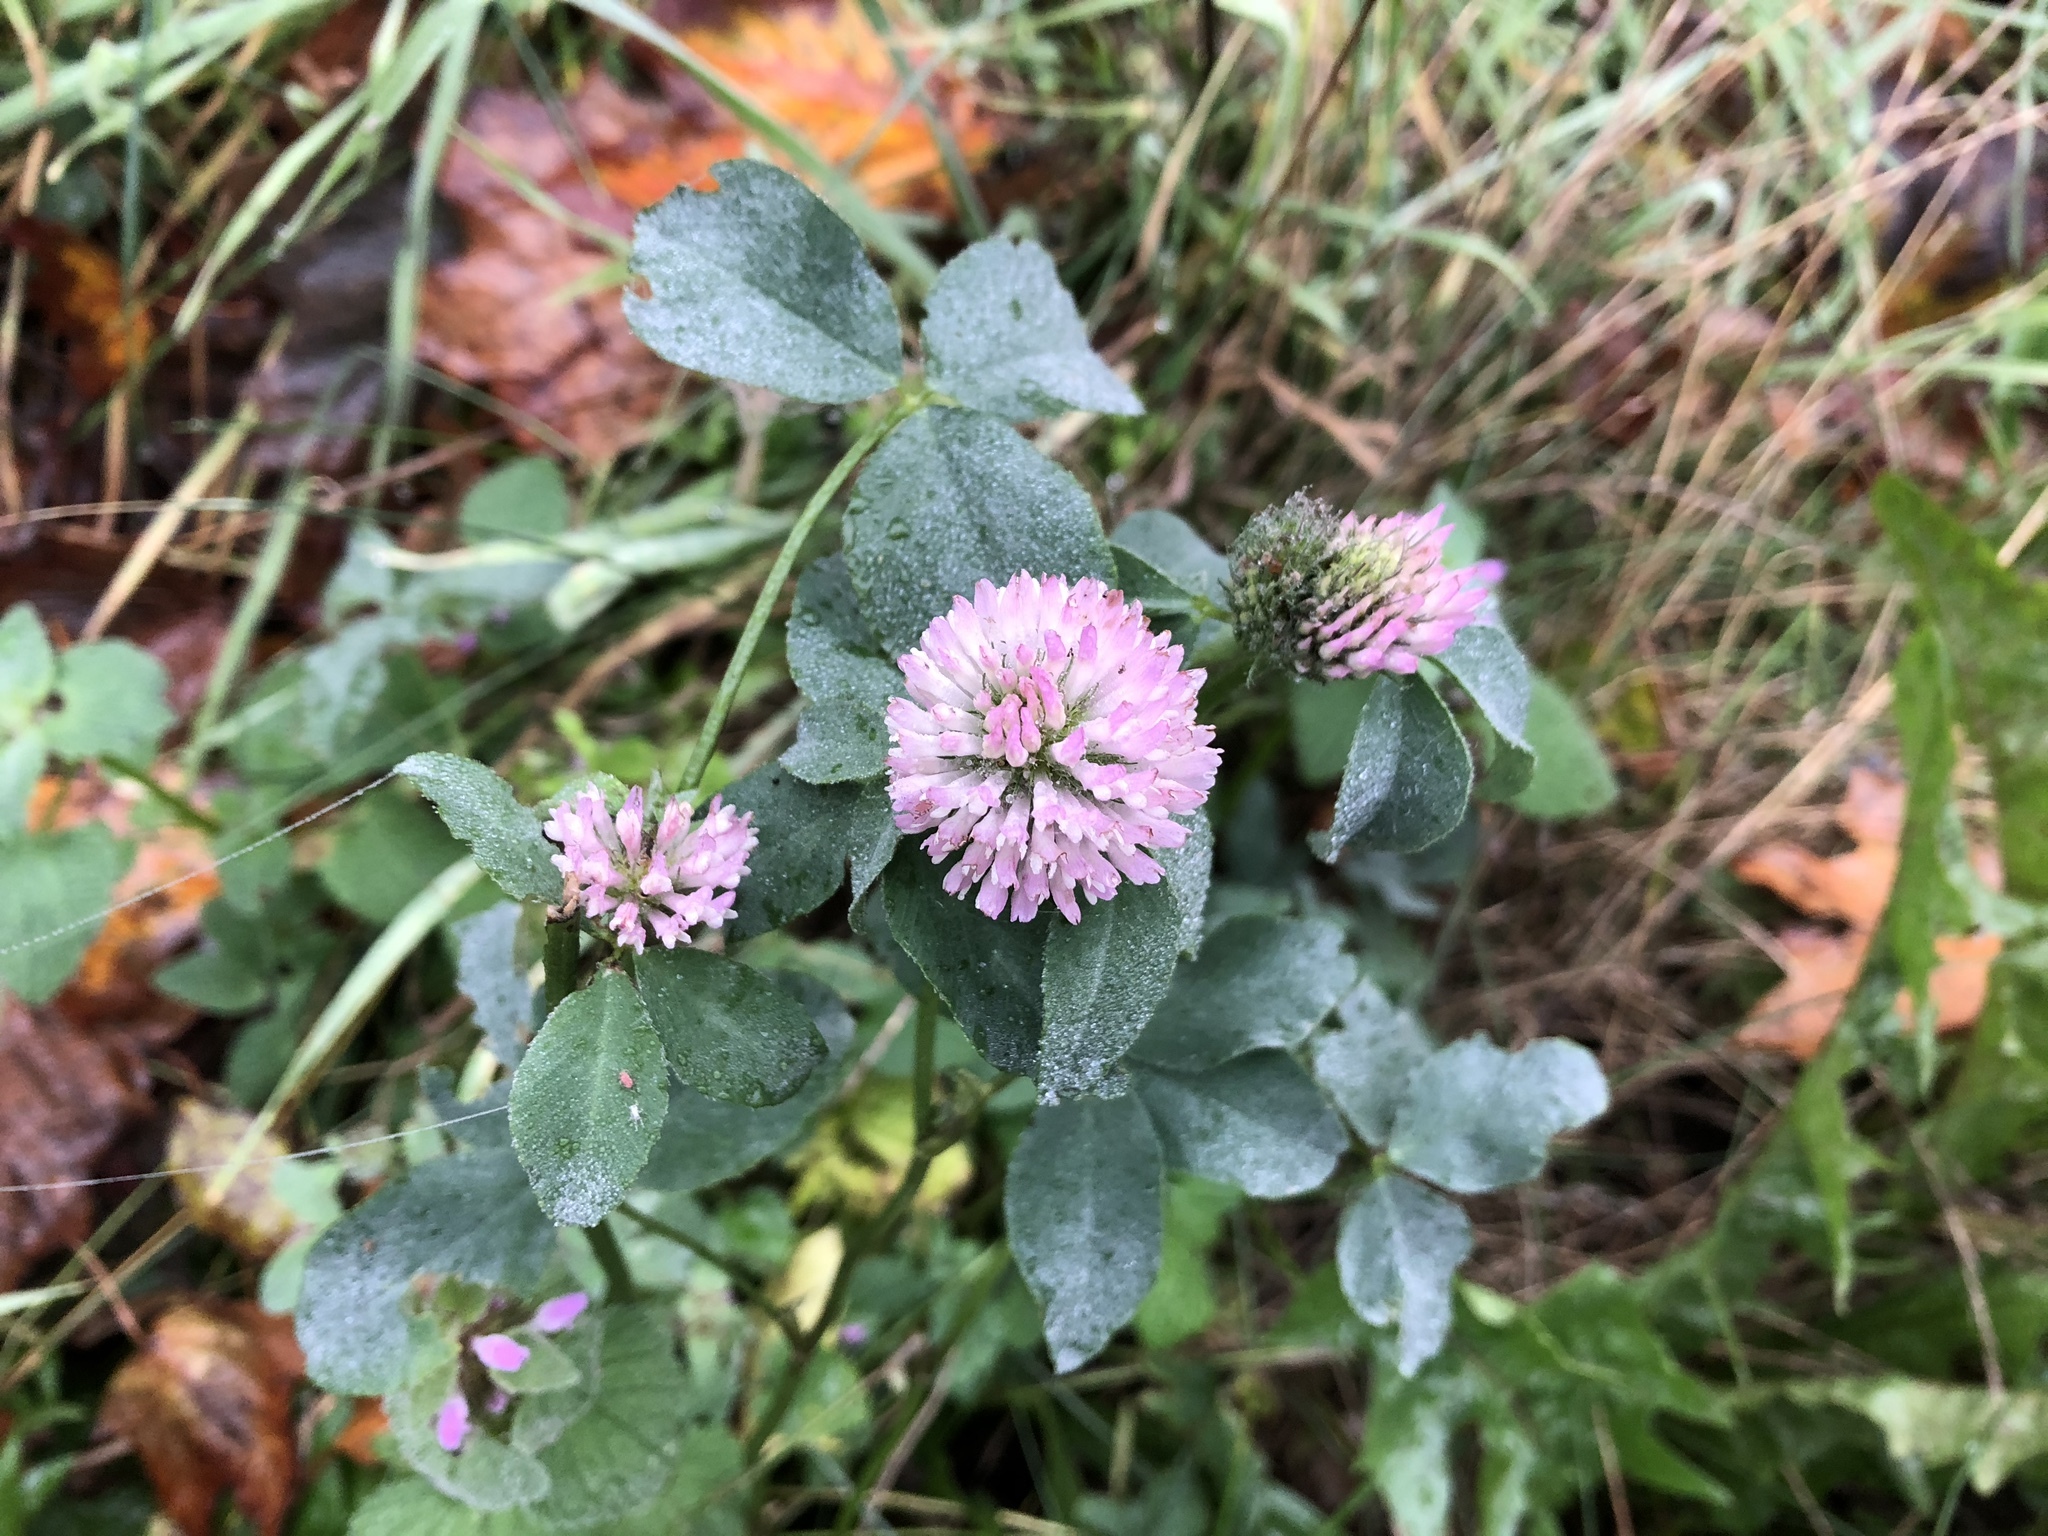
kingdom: Plantae
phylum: Tracheophyta
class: Magnoliopsida
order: Fabales
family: Fabaceae
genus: Trifolium
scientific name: Trifolium pratense
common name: Red clover
